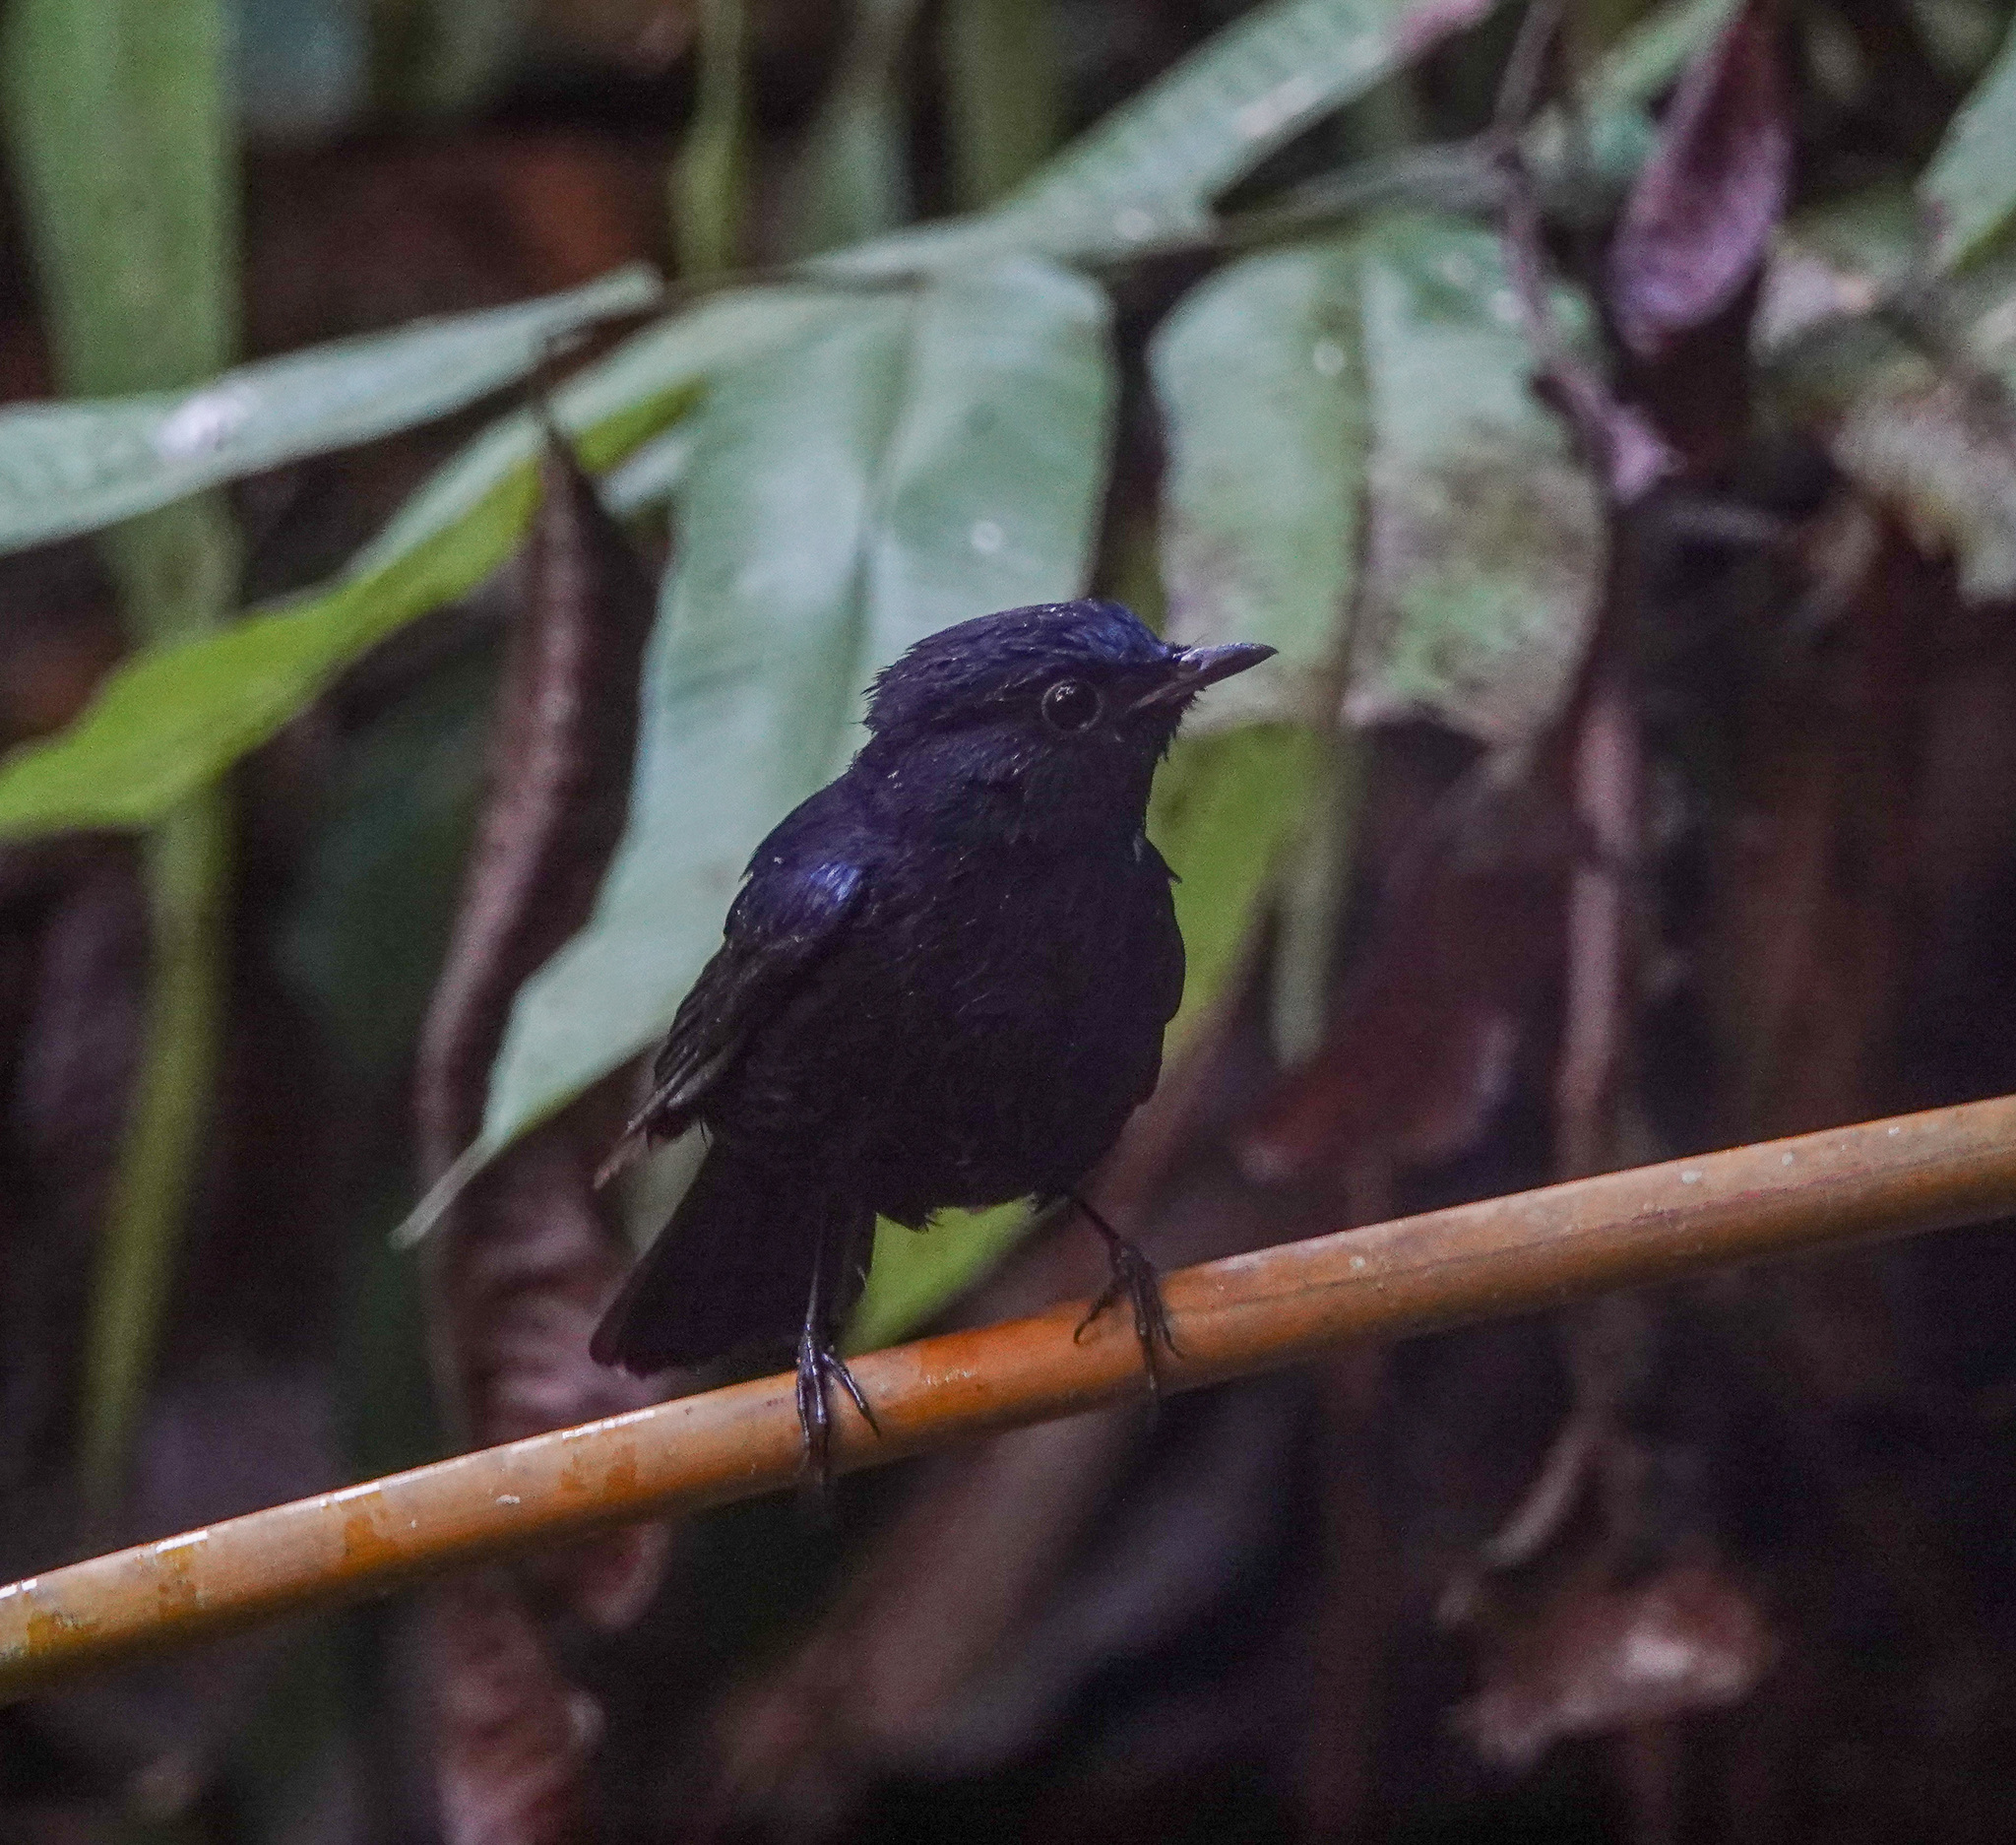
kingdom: Animalia
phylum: Chordata
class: Aves
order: Passeriformes
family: Muscicapidae
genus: Myiomela
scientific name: Myiomela leucura
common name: White-tailed robin
